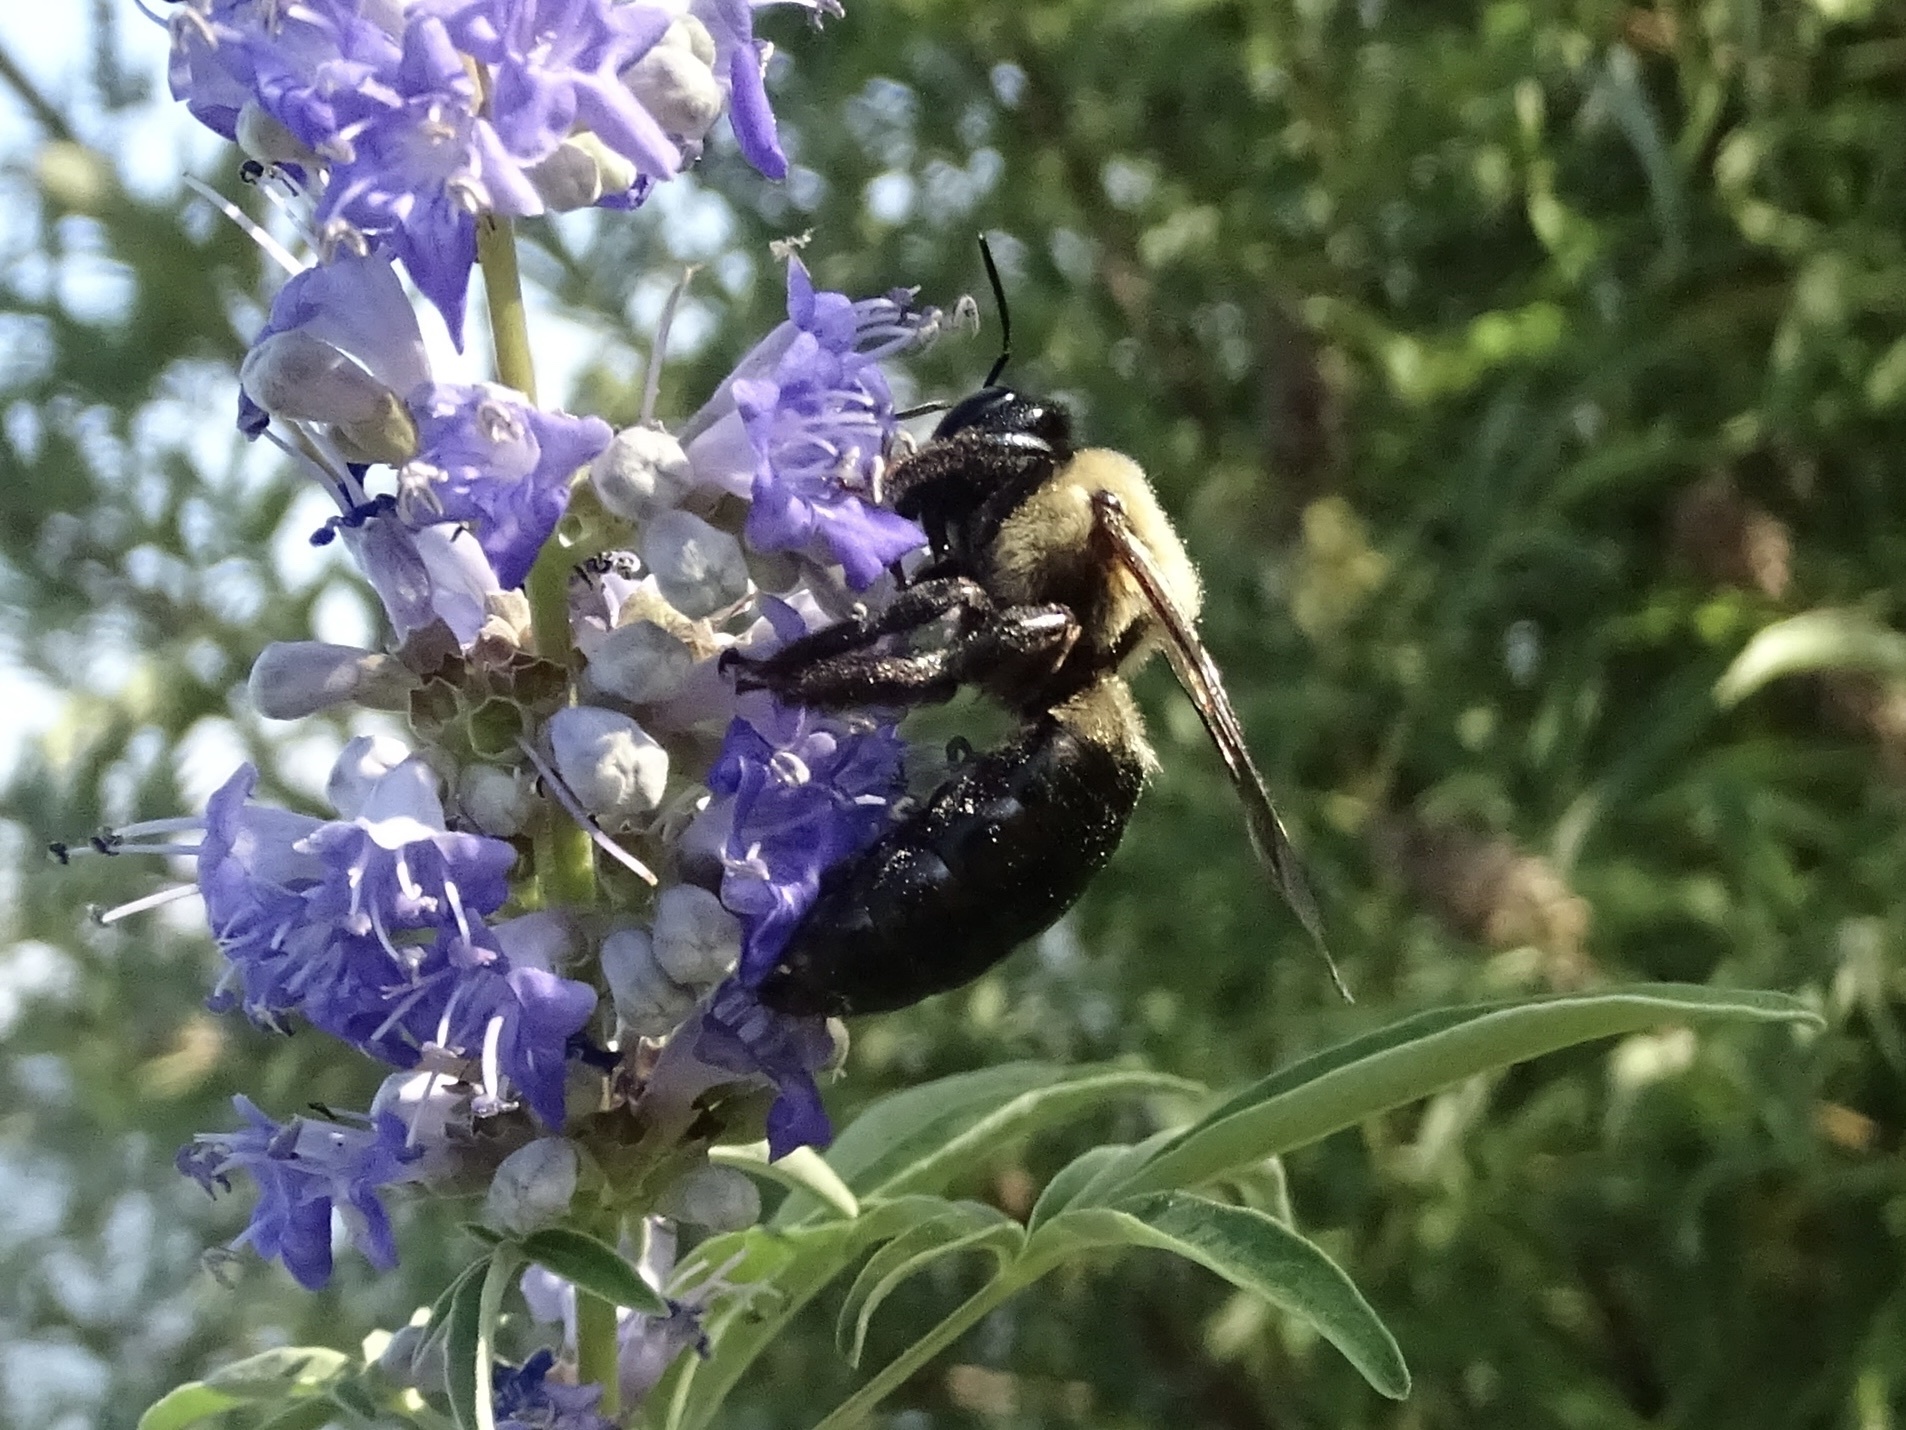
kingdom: Animalia
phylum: Arthropoda
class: Insecta
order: Hymenoptera
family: Apidae
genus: Xylocopa
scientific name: Xylocopa virginica
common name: Carpenter bee
